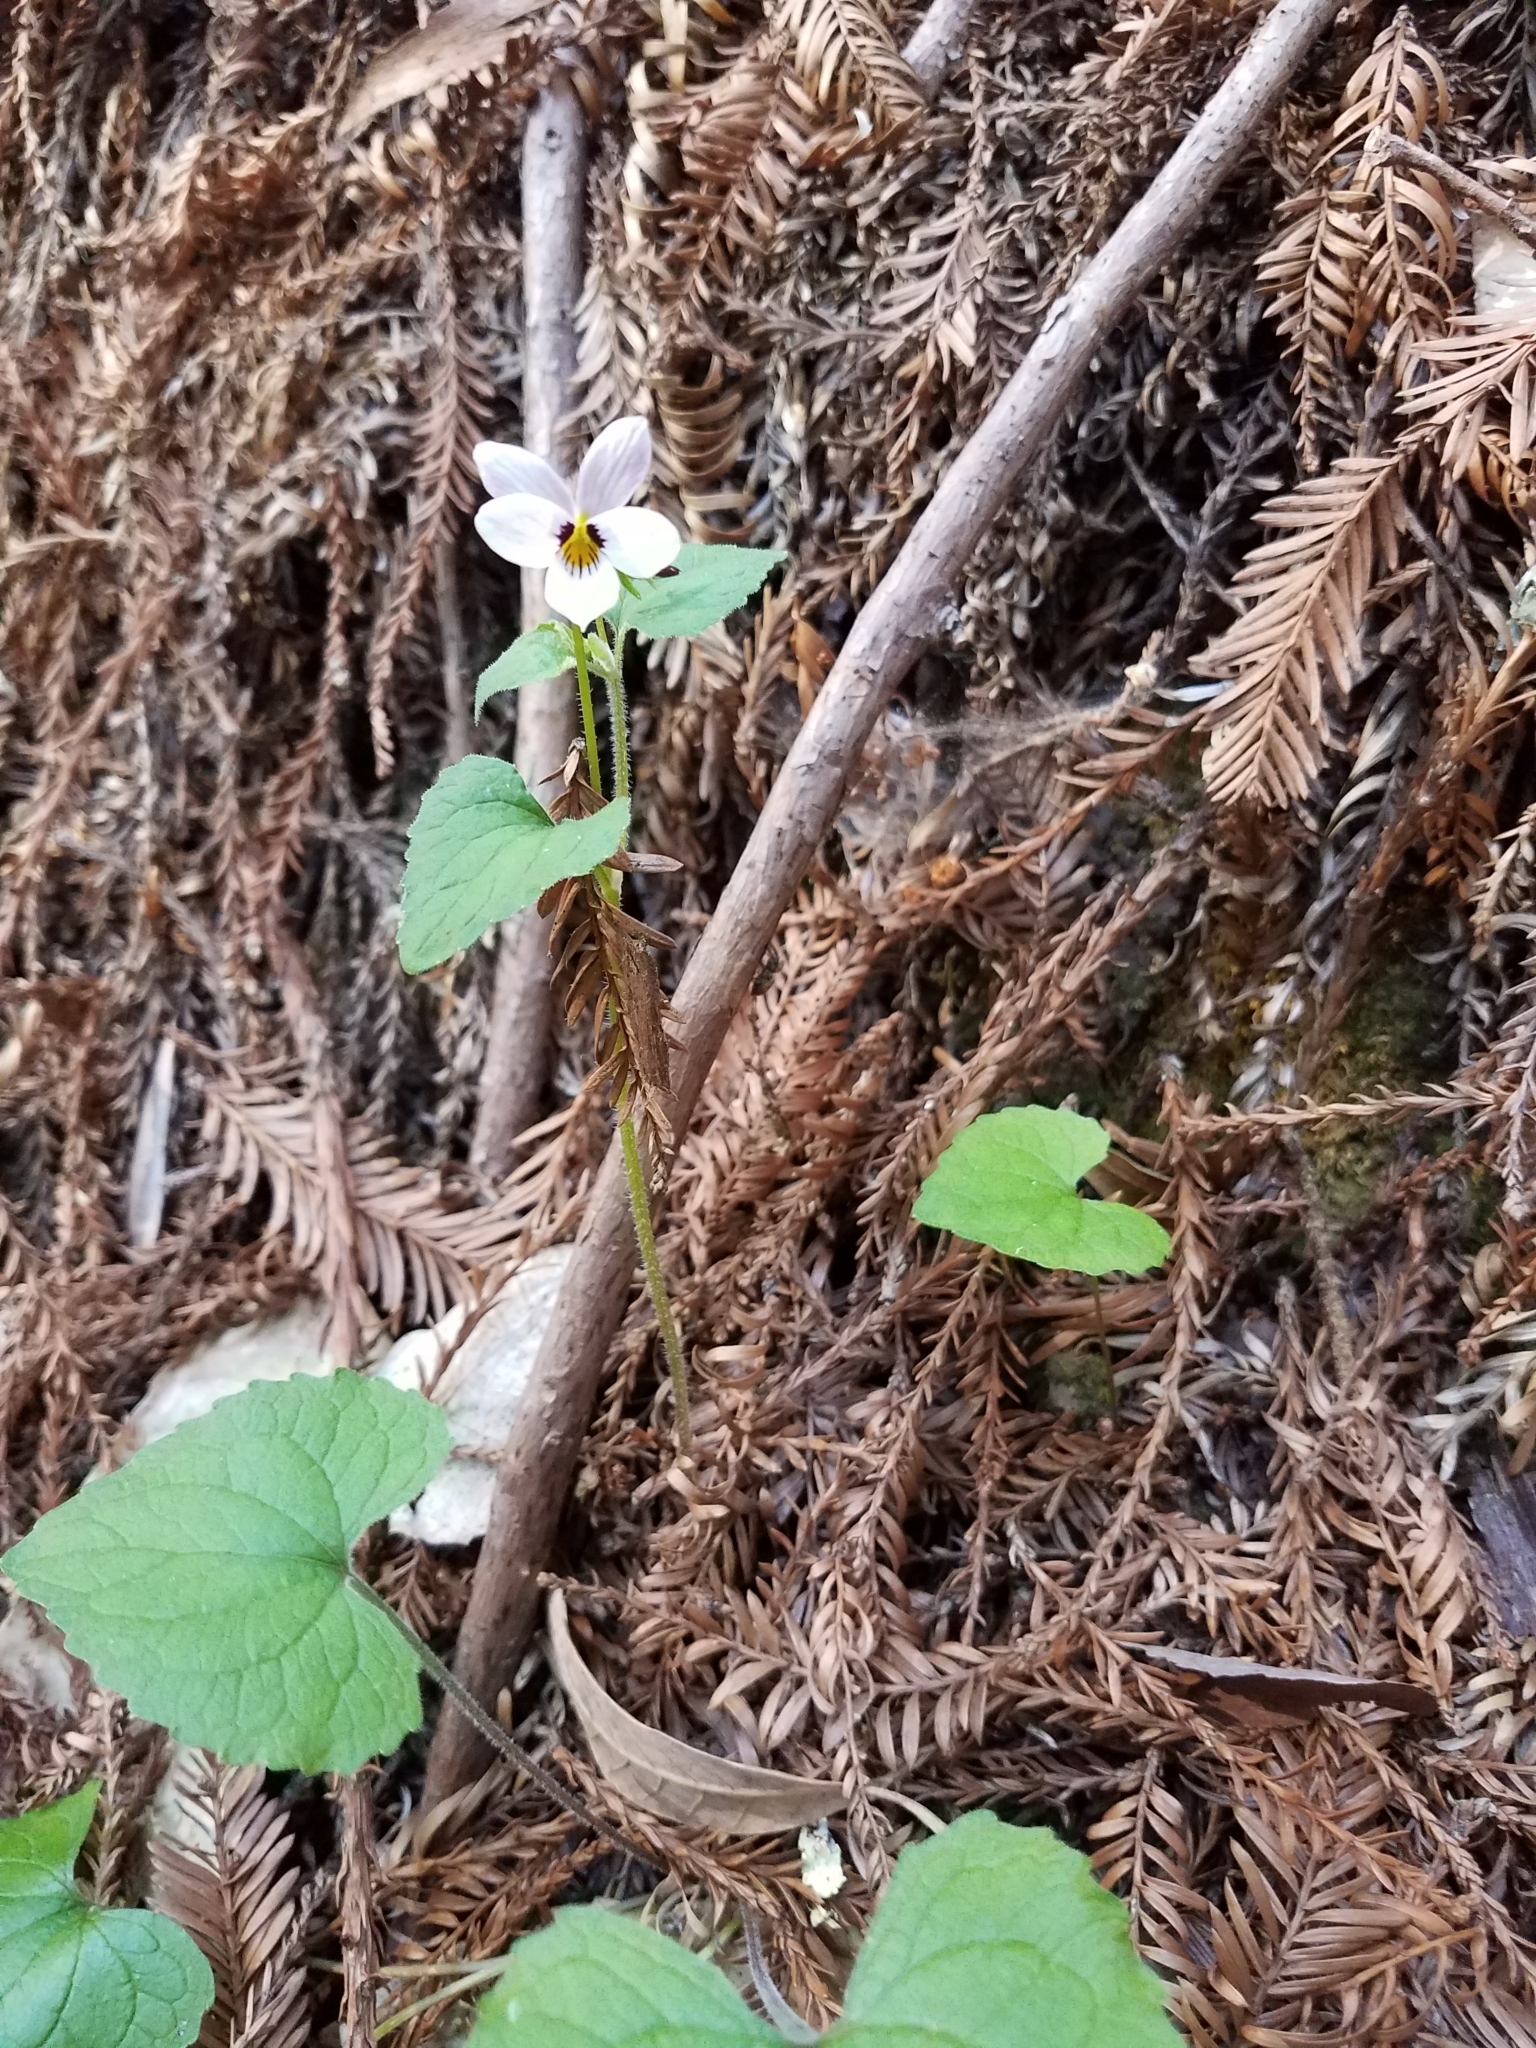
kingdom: Plantae
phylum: Tracheophyta
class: Magnoliopsida
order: Malpighiales
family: Violaceae
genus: Viola
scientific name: Viola ocellata
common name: Western heart's ease
